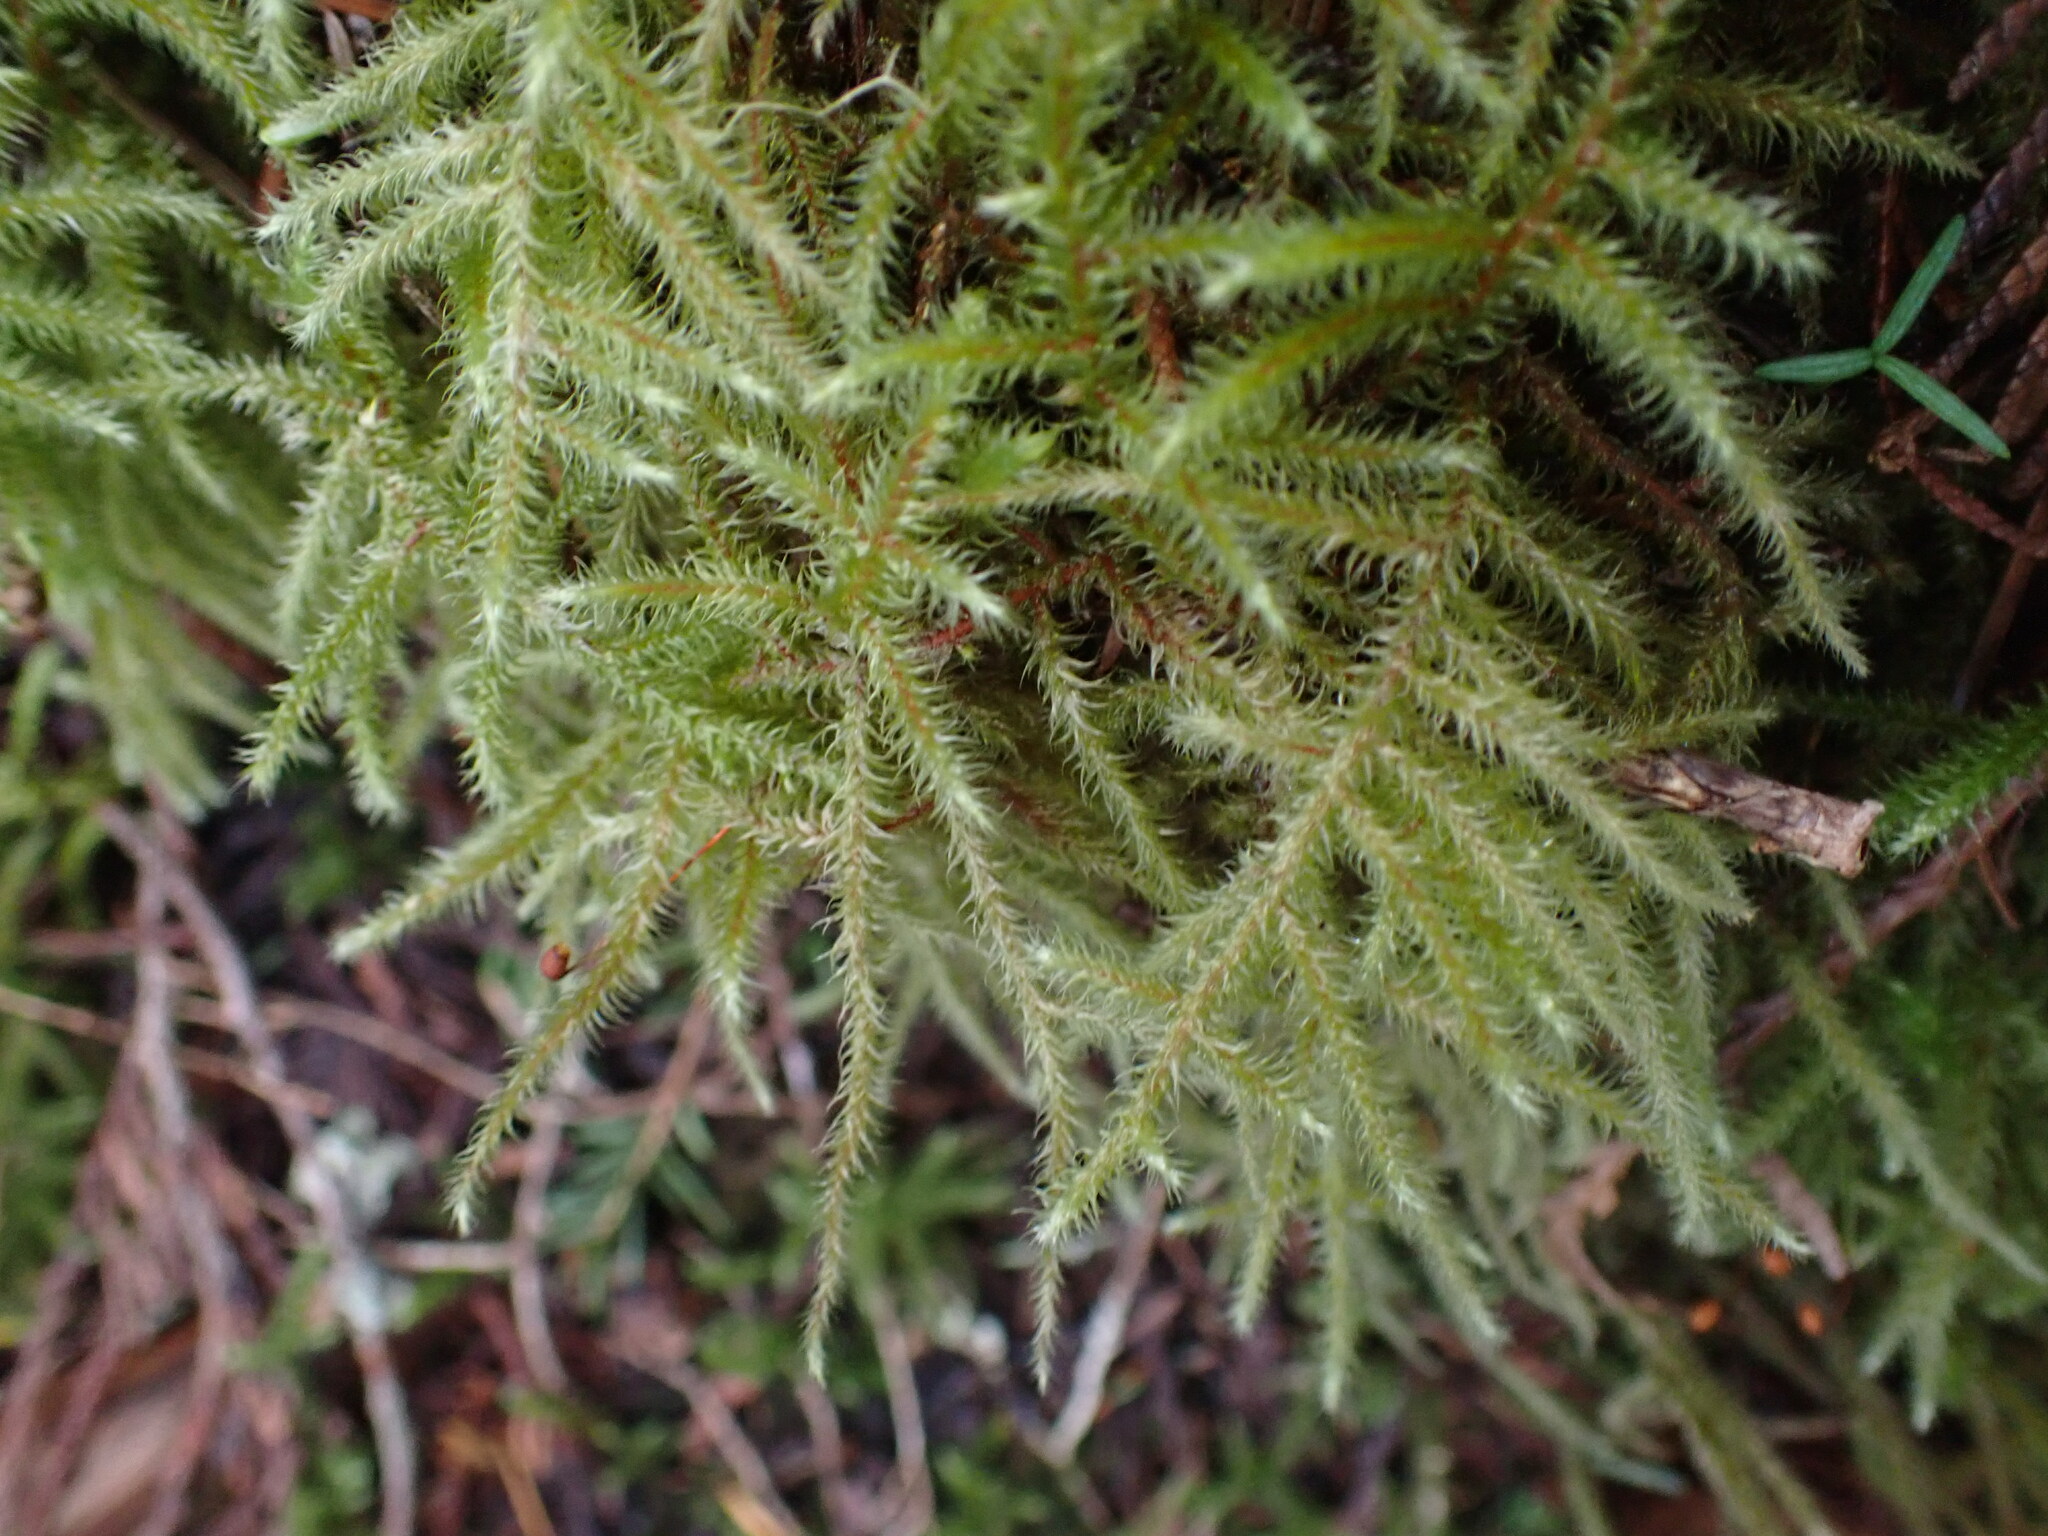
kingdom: Plantae
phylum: Bryophyta
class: Bryopsida
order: Hypnales
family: Hylocomiaceae
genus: Rhytidiadelphus
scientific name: Rhytidiadelphus loreus
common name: Lanky moss
